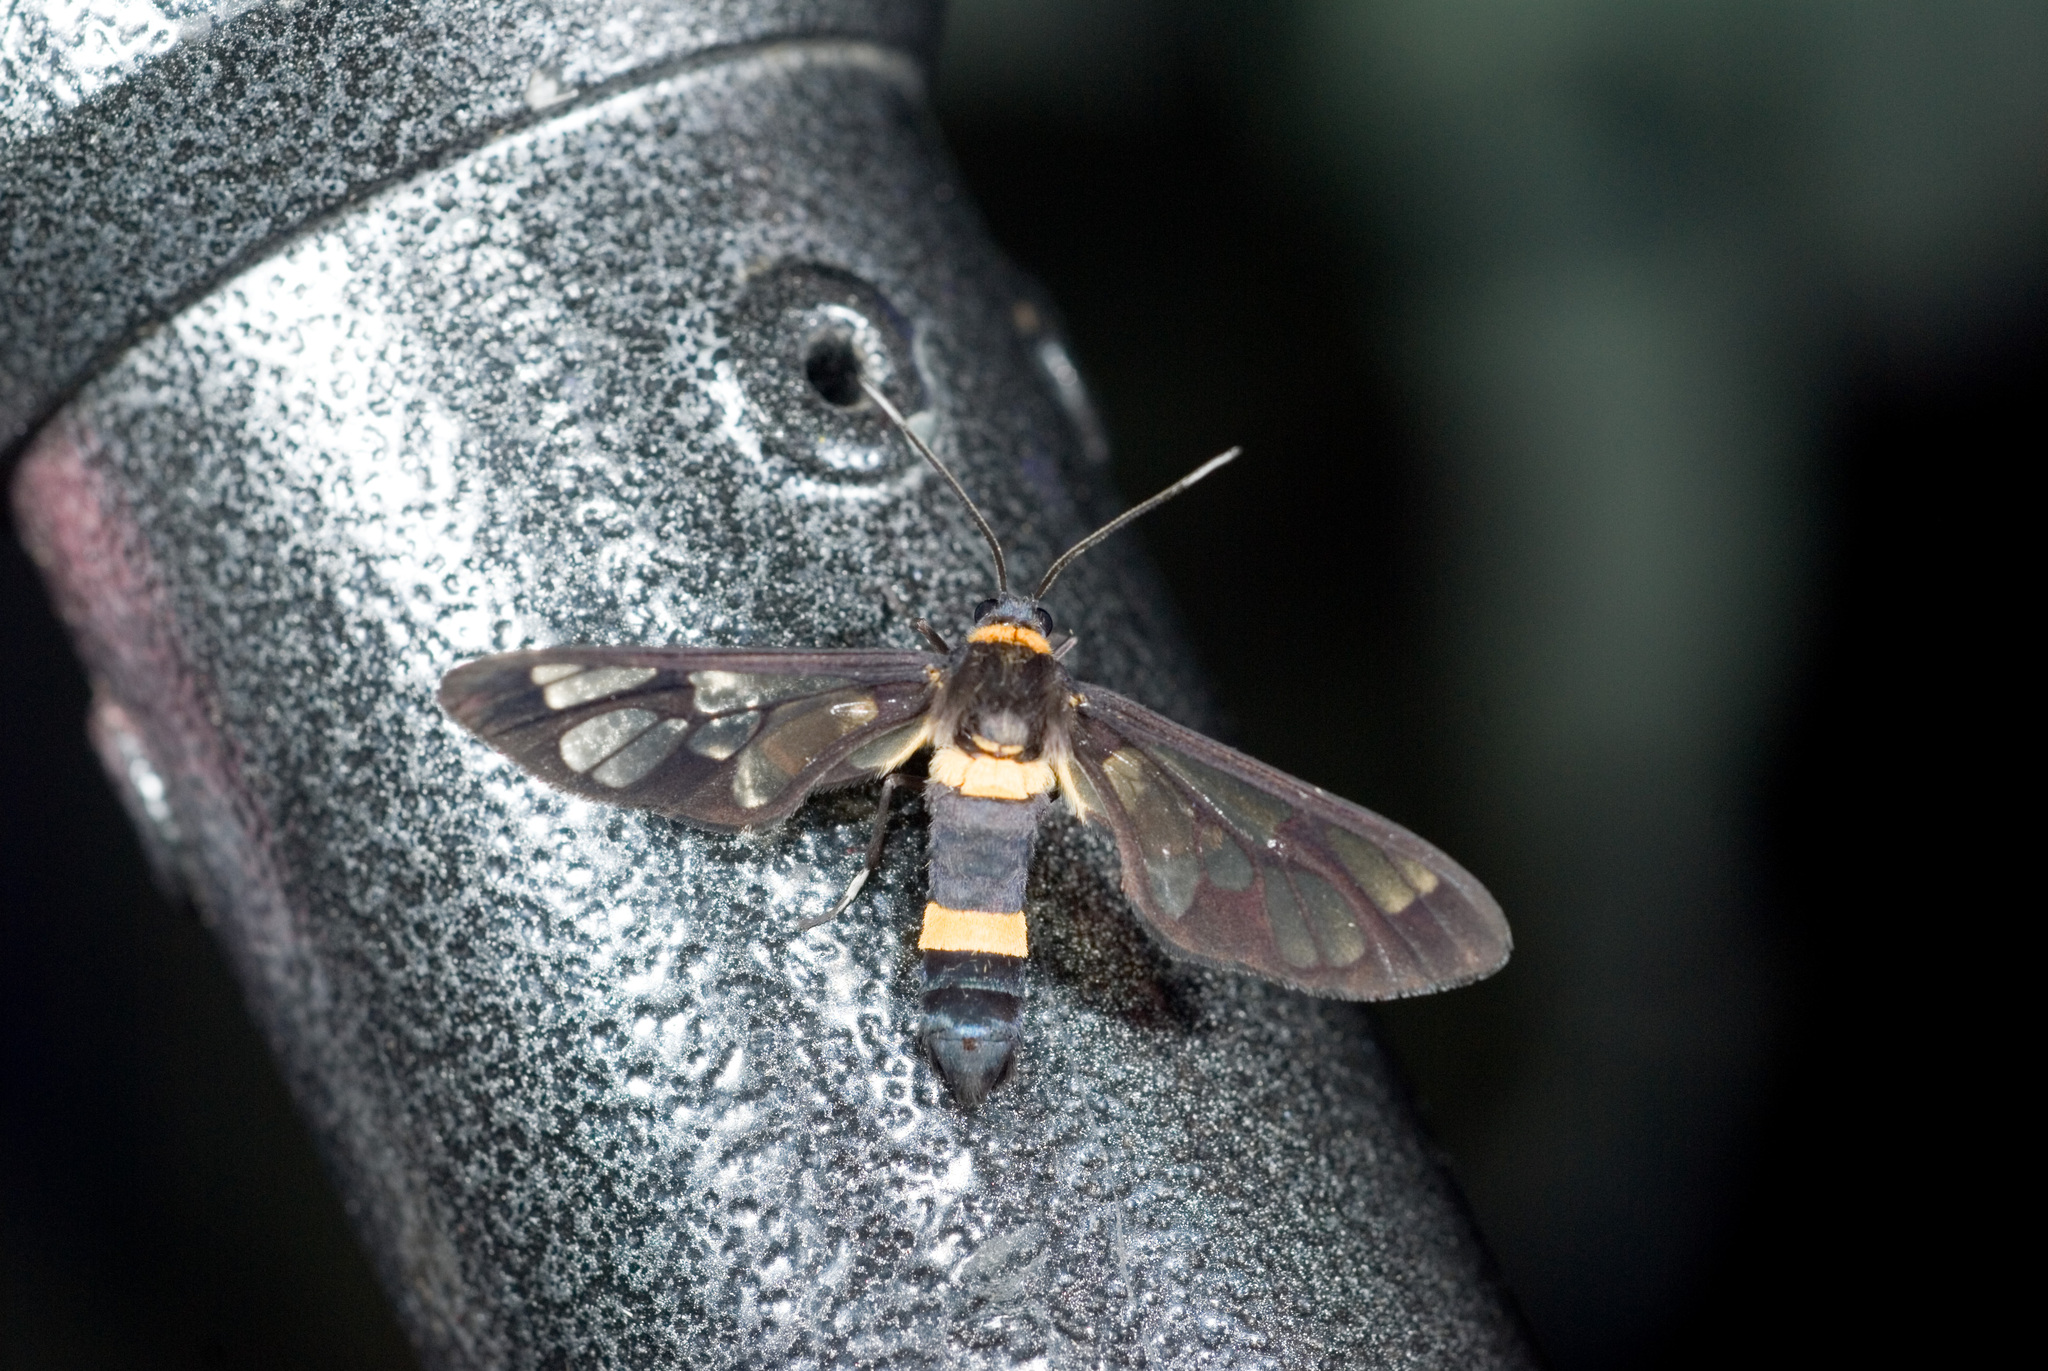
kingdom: Animalia
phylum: Arthropoda
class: Insecta
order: Lepidoptera
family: Erebidae
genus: Syntomoides
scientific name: Syntomoides imaon
